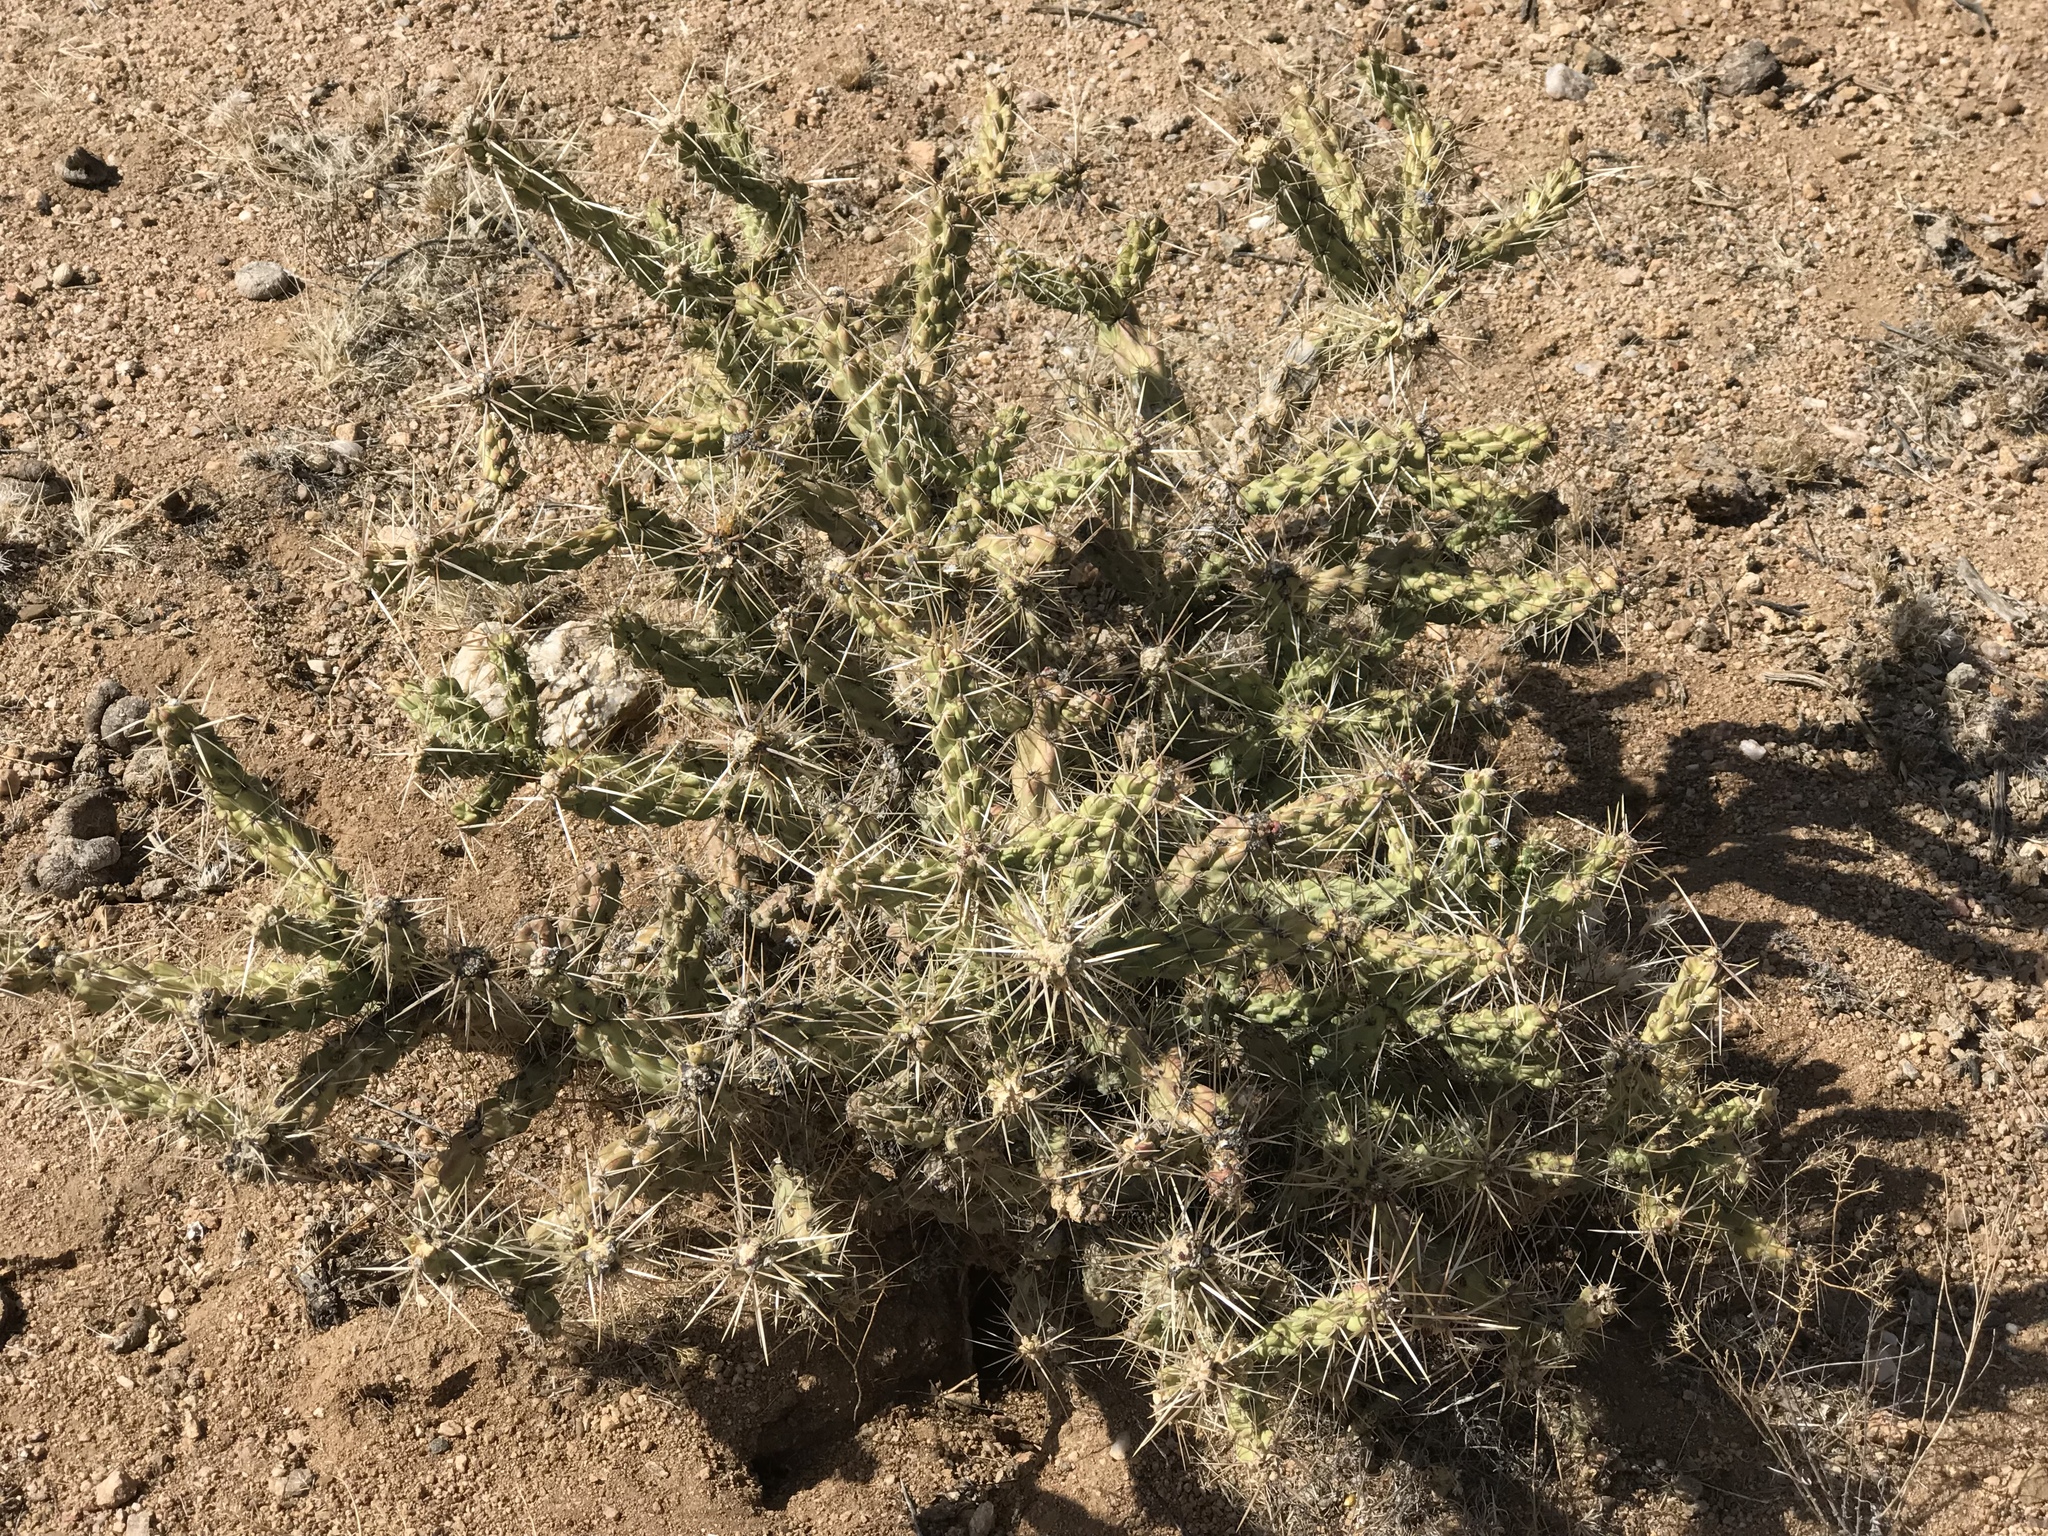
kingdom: Plantae
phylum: Tracheophyta
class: Magnoliopsida
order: Caryophyllales
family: Cactaceae
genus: Cylindropuntia
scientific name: Cylindropuntia whipplei
